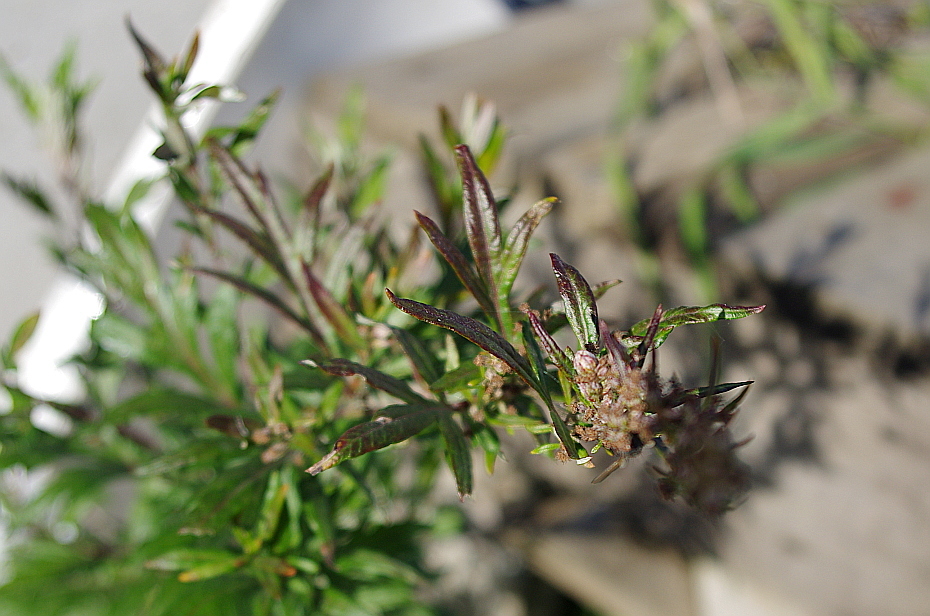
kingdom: Plantae
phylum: Tracheophyta
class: Magnoliopsida
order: Asterales
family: Asteraceae
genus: Artemisia
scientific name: Artemisia vulgaris
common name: Mugwort
